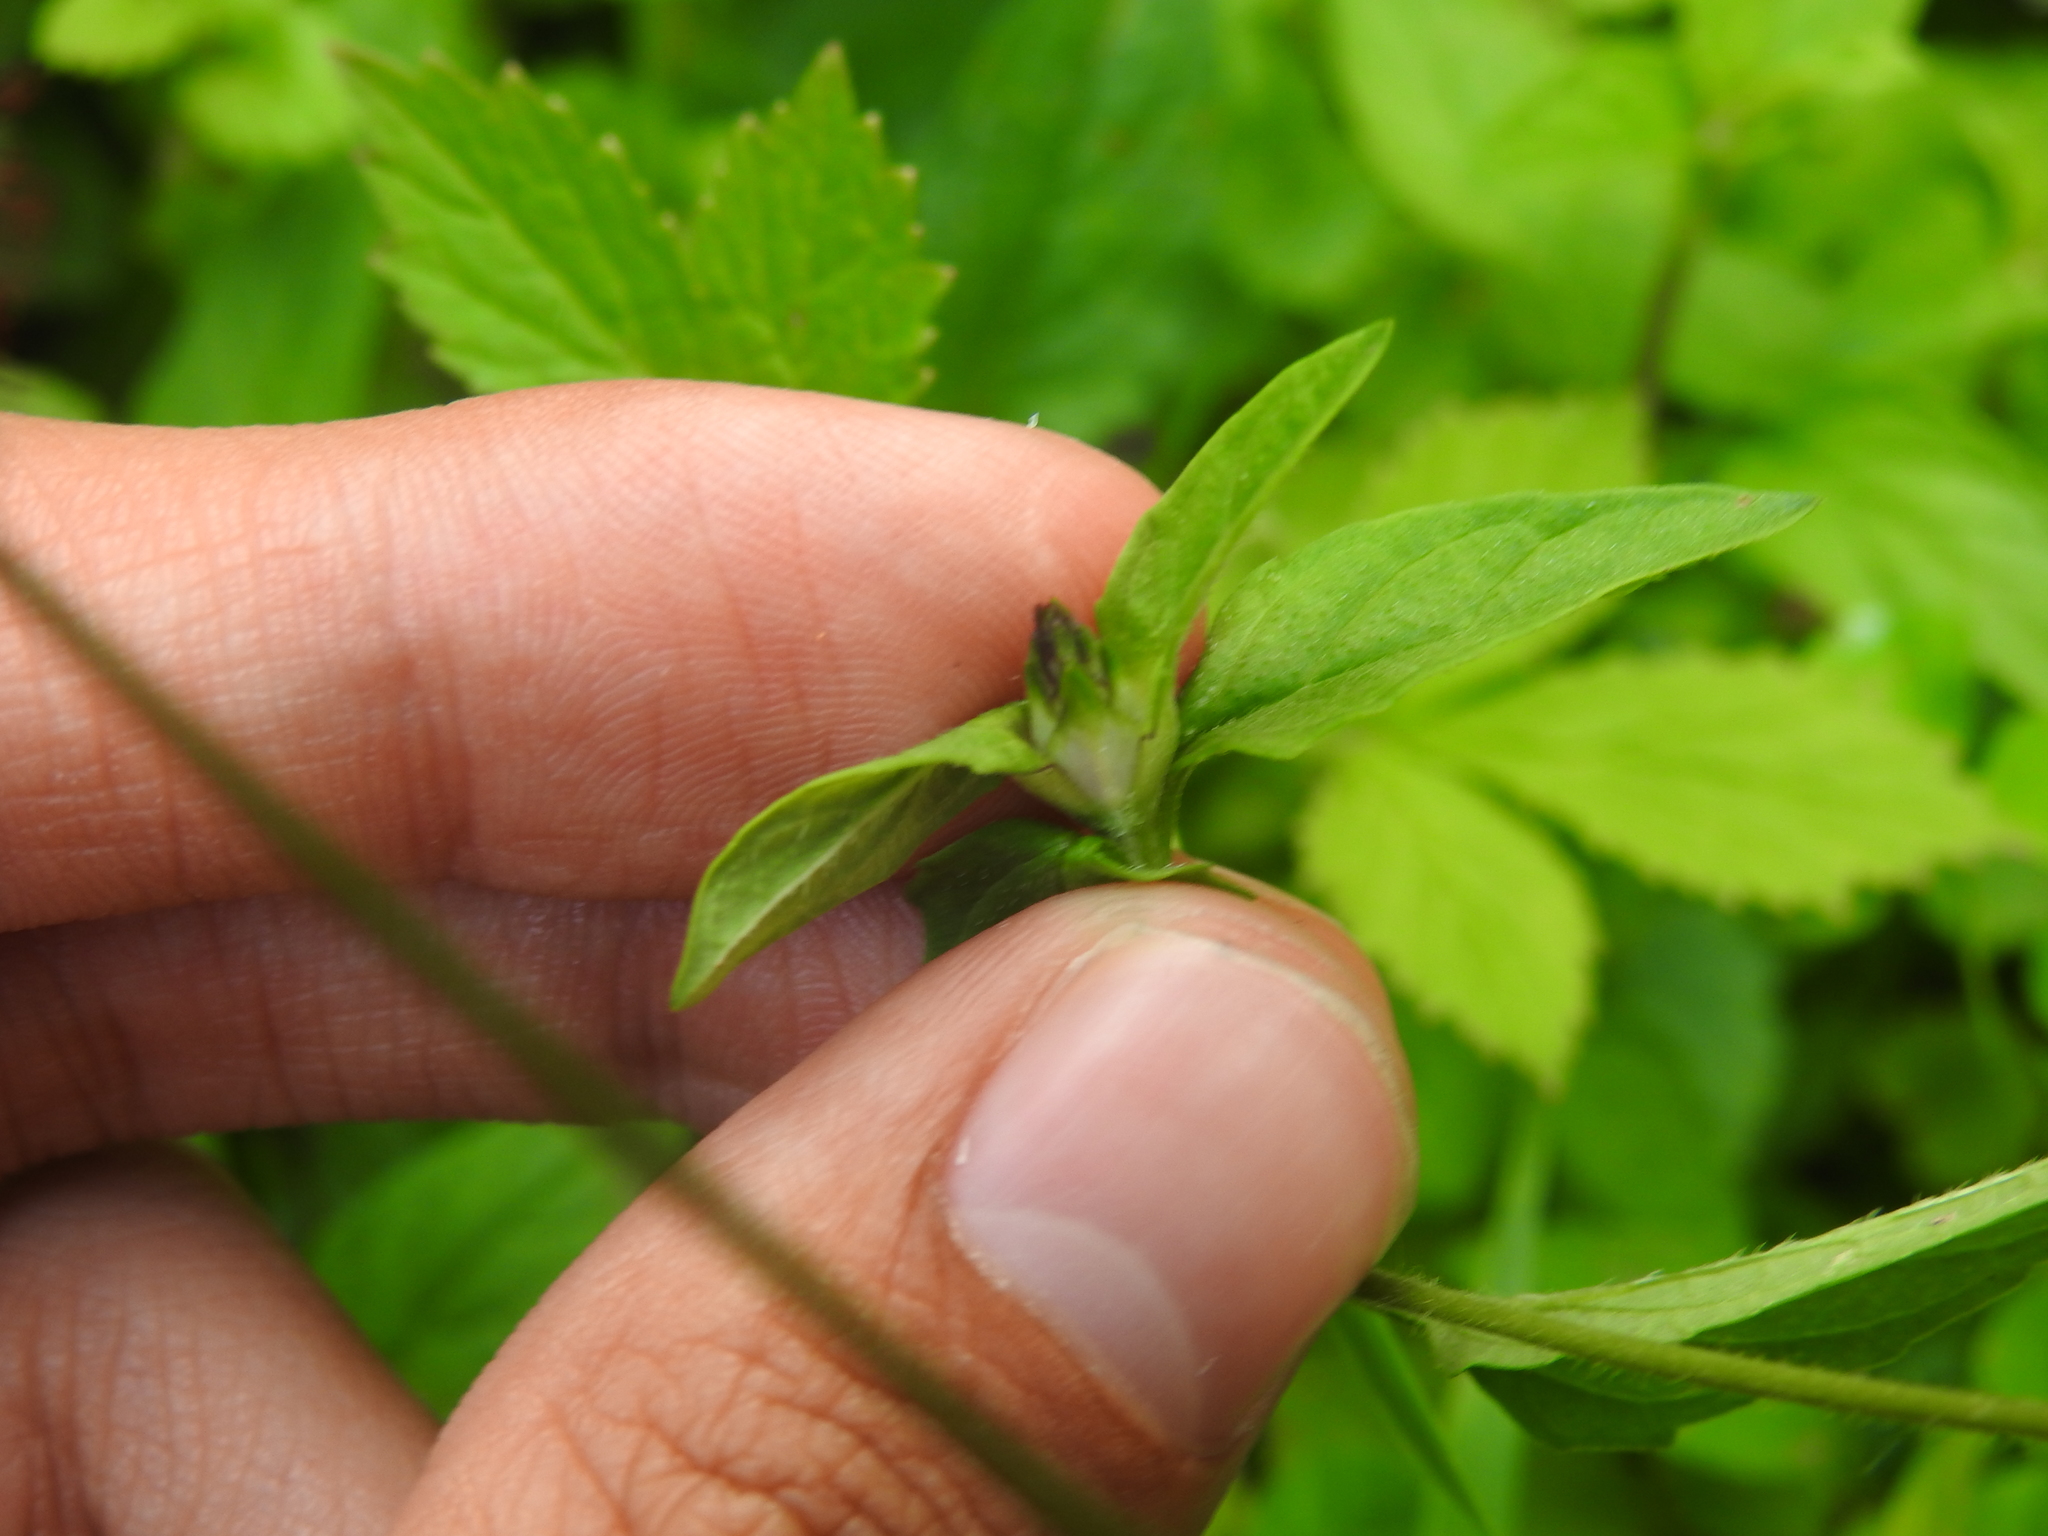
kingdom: Plantae
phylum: Tracheophyta
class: Magnoliopsida
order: Lamiales
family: Lamiaceae
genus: Prunella
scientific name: Prunella vulgaris
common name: Heal-all
